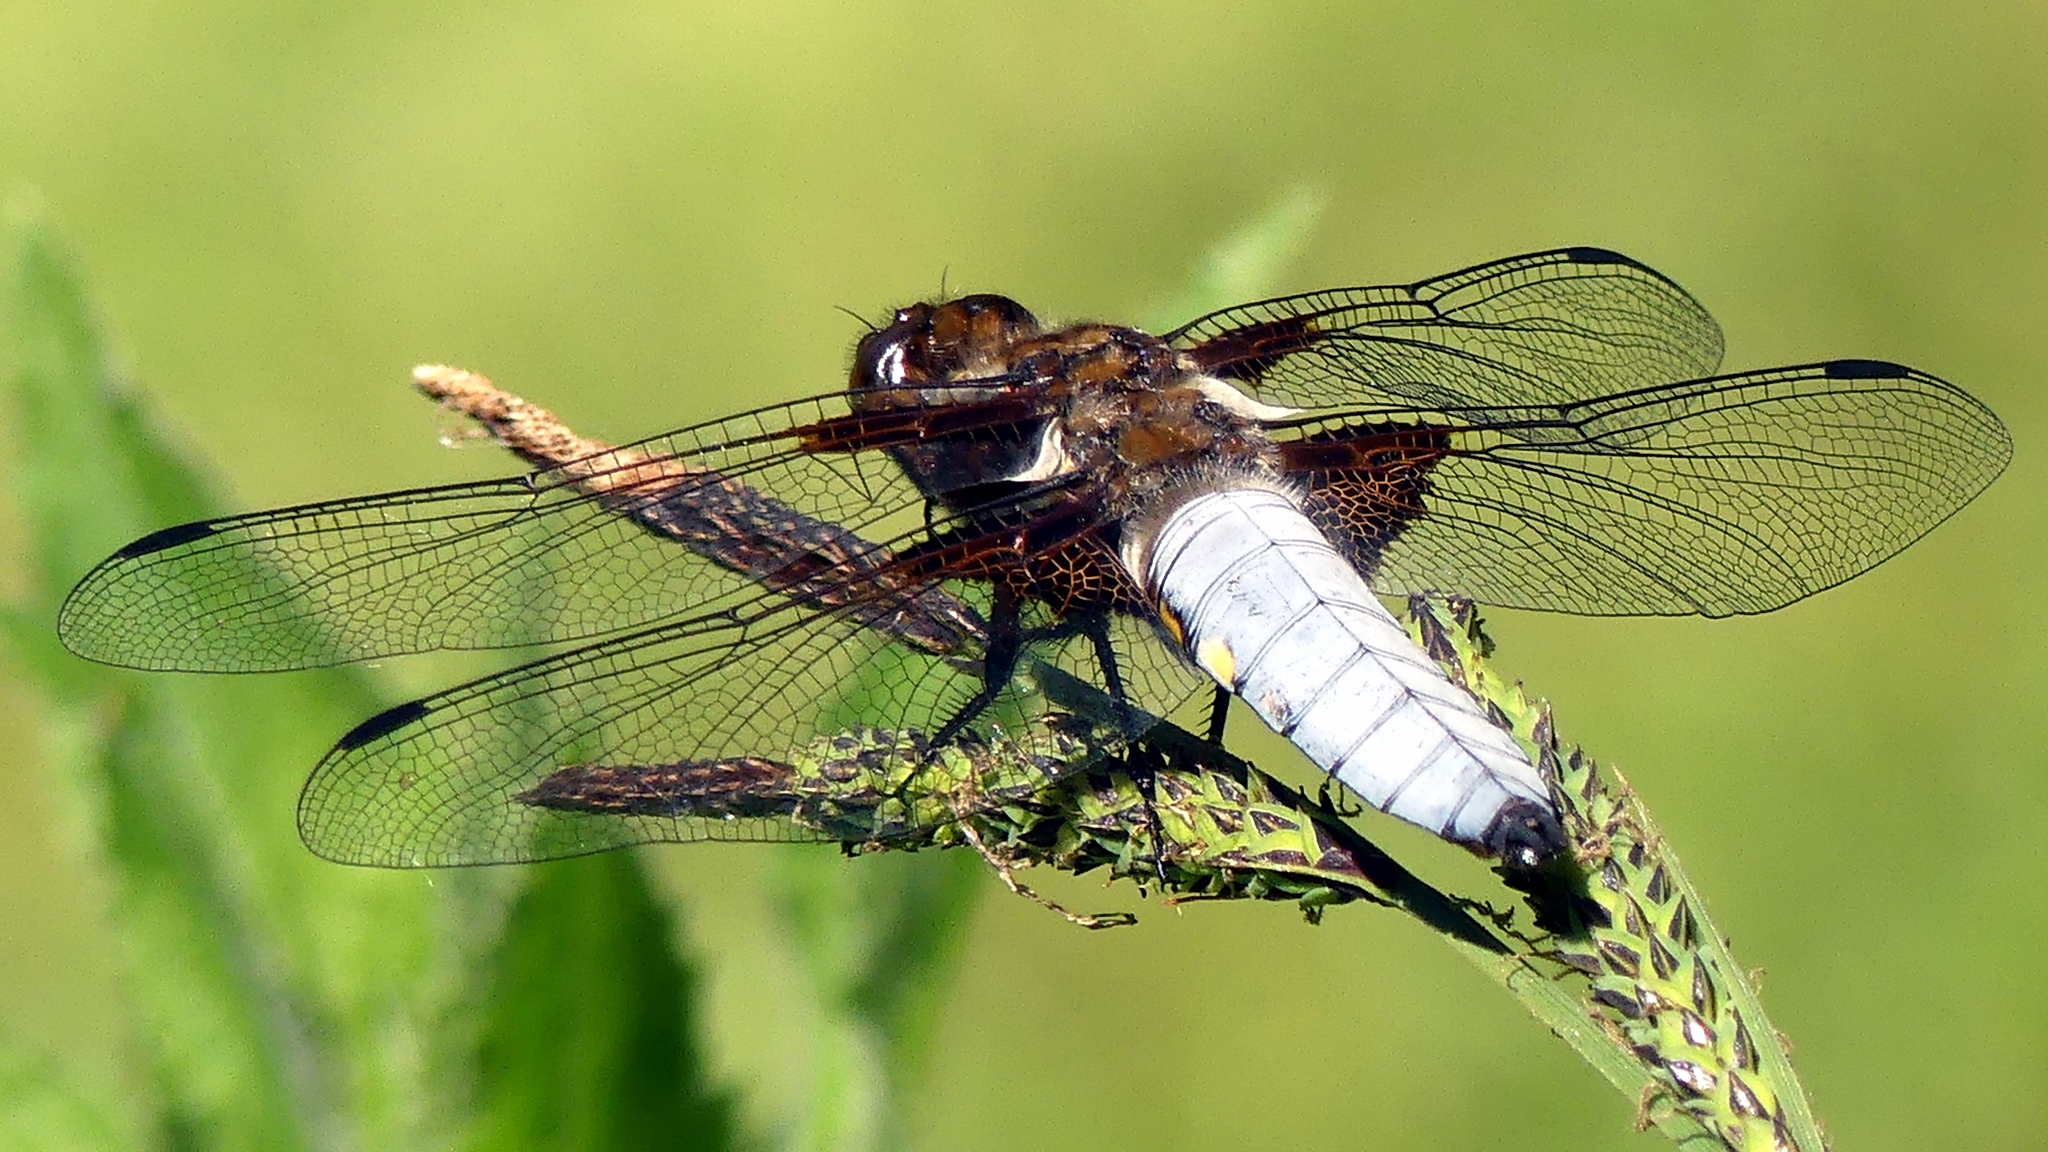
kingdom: Animalia
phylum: Arthropoda
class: Insecta
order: Odonata
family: Libellulidae
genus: Libellula
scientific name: Libellula depressa
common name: Broad-bodied chaser
